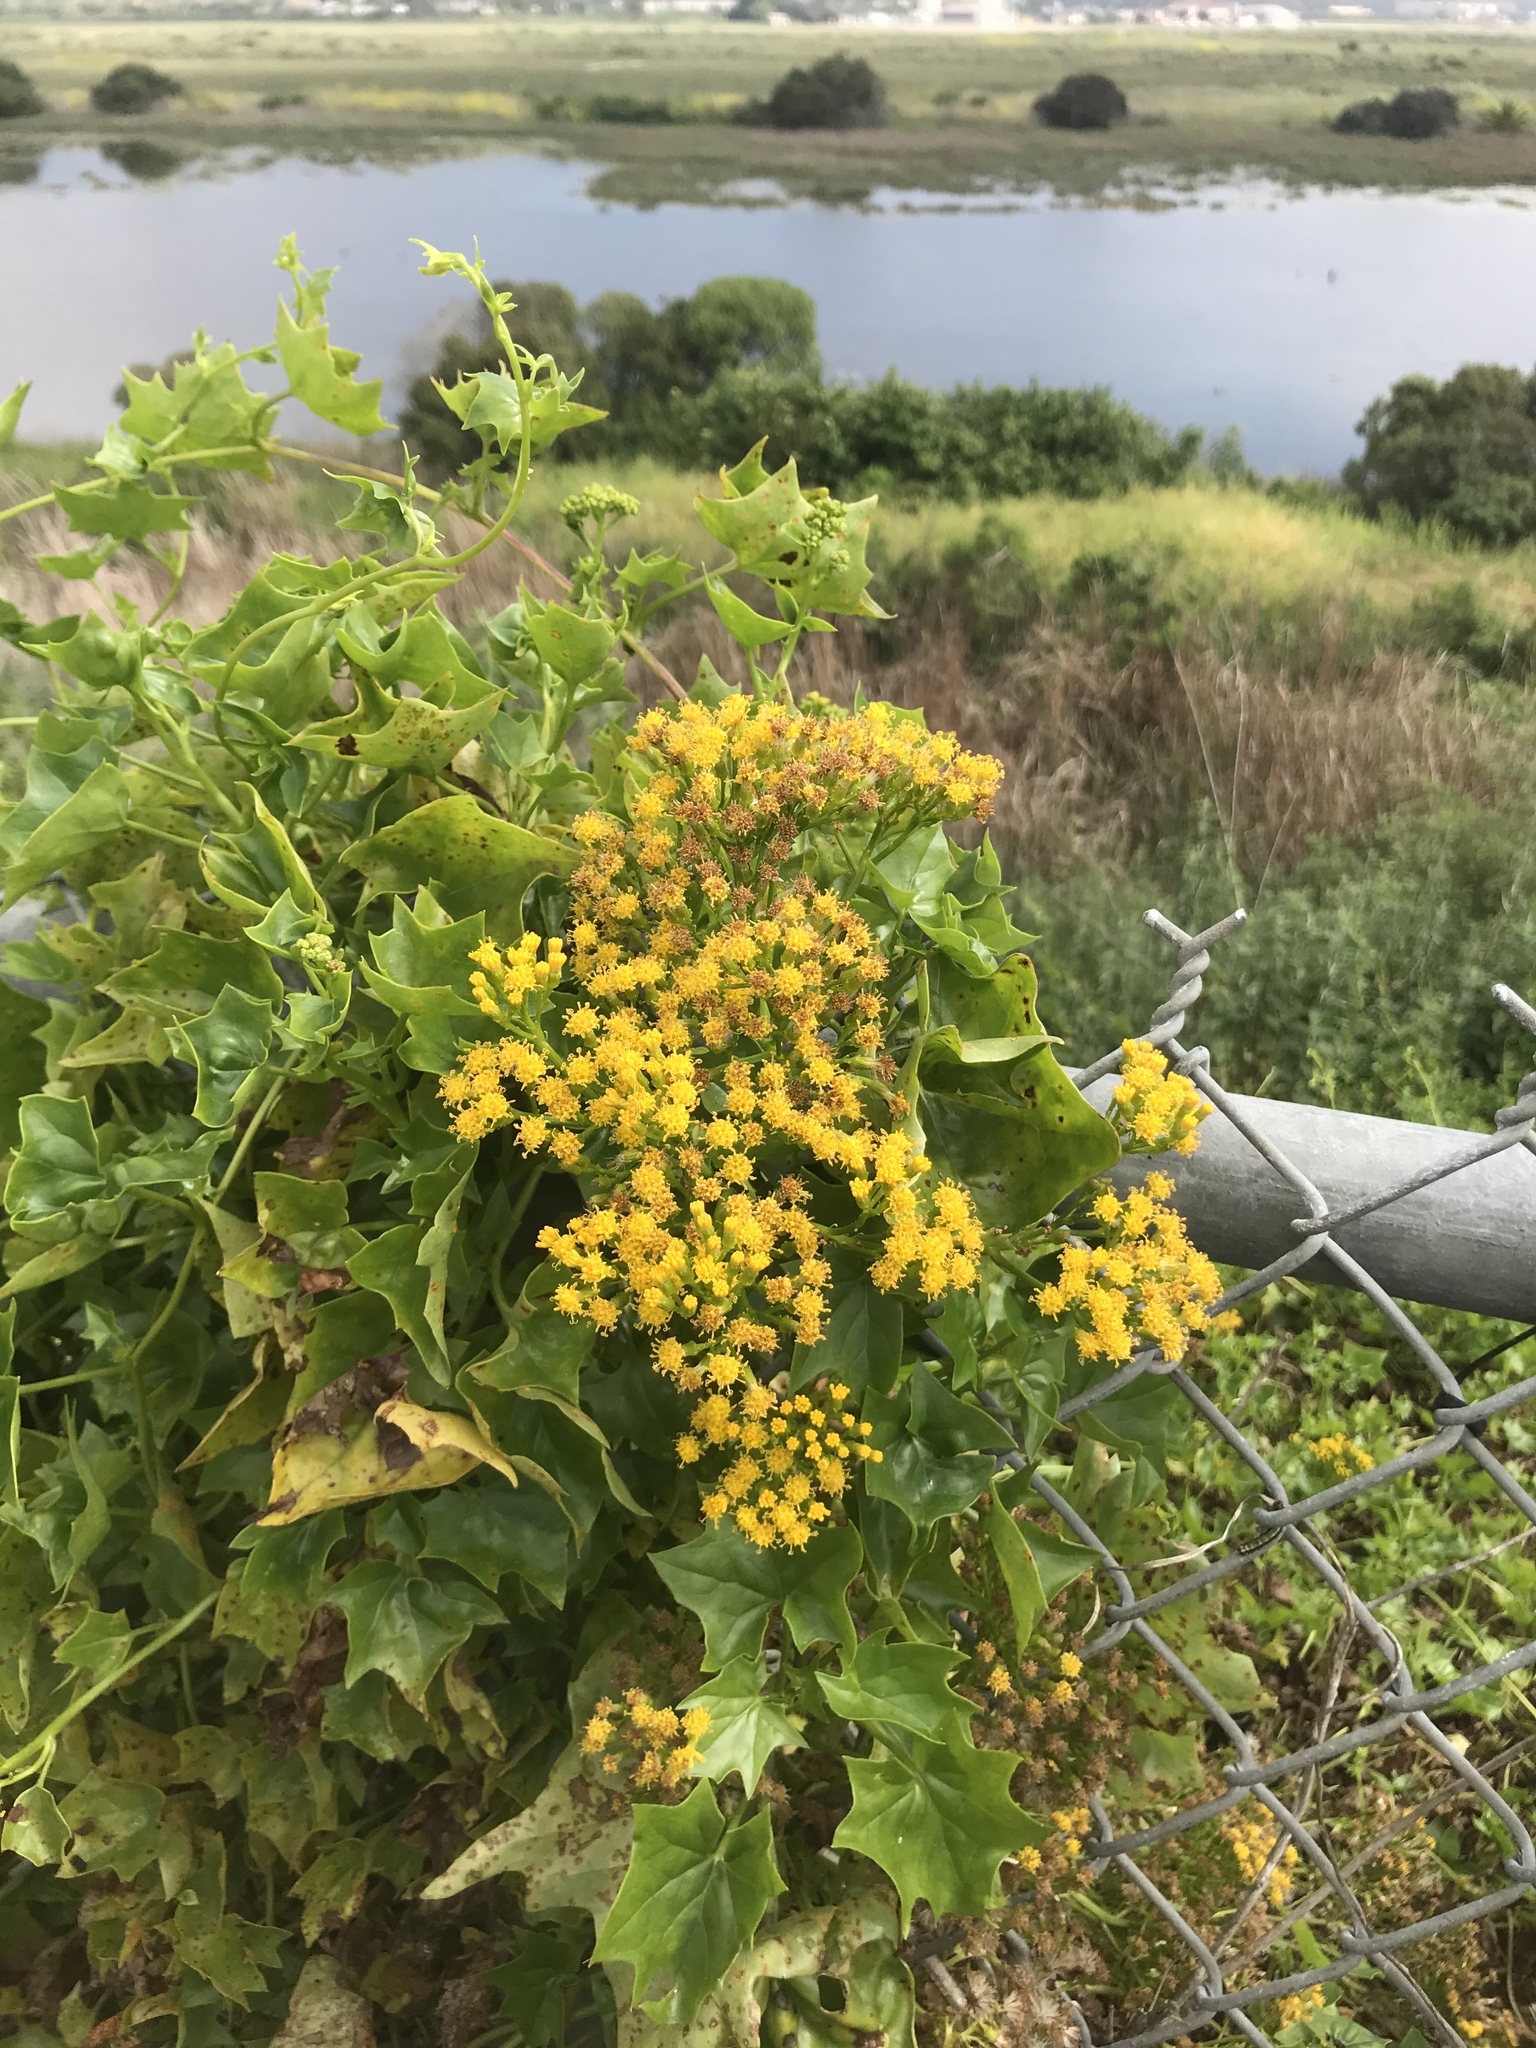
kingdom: Plantae
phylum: Tracheophyta
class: Magnoliopsida
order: Asterales
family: Asteraceae
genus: Delairea
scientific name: Delairea odorata
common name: Cape-ivy
